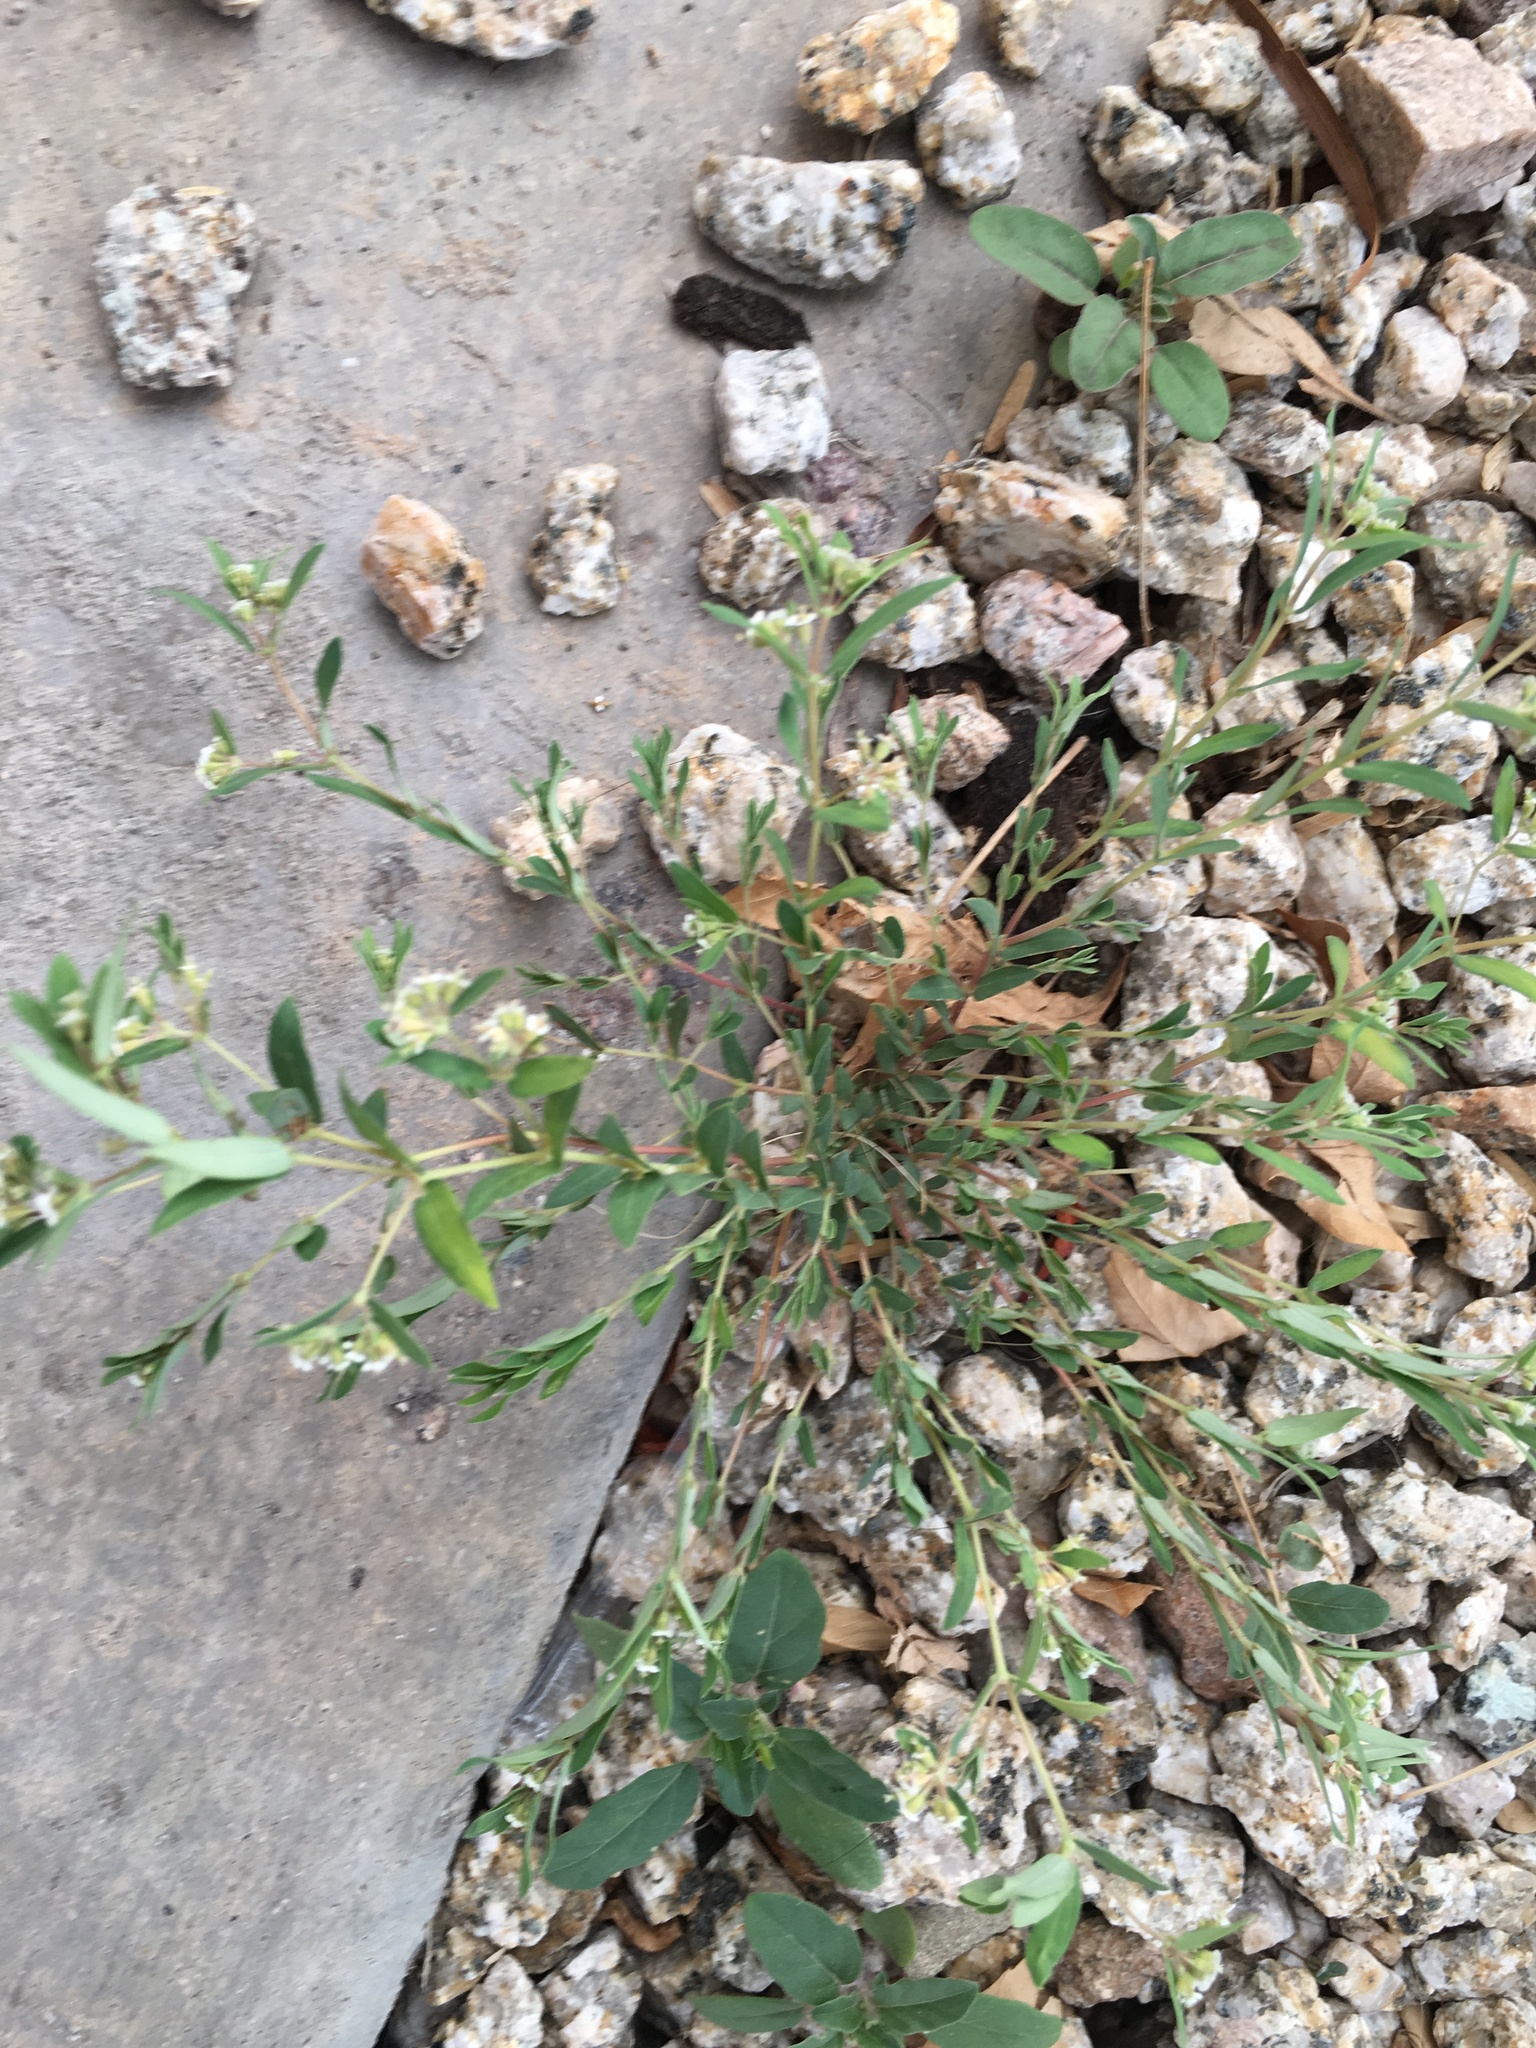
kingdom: Plantae
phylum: Tracheophyta
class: Magnoliopsida
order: Malpighiales
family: Euphorbiaceae
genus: Euphorbia
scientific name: Euphorbia capitellata
